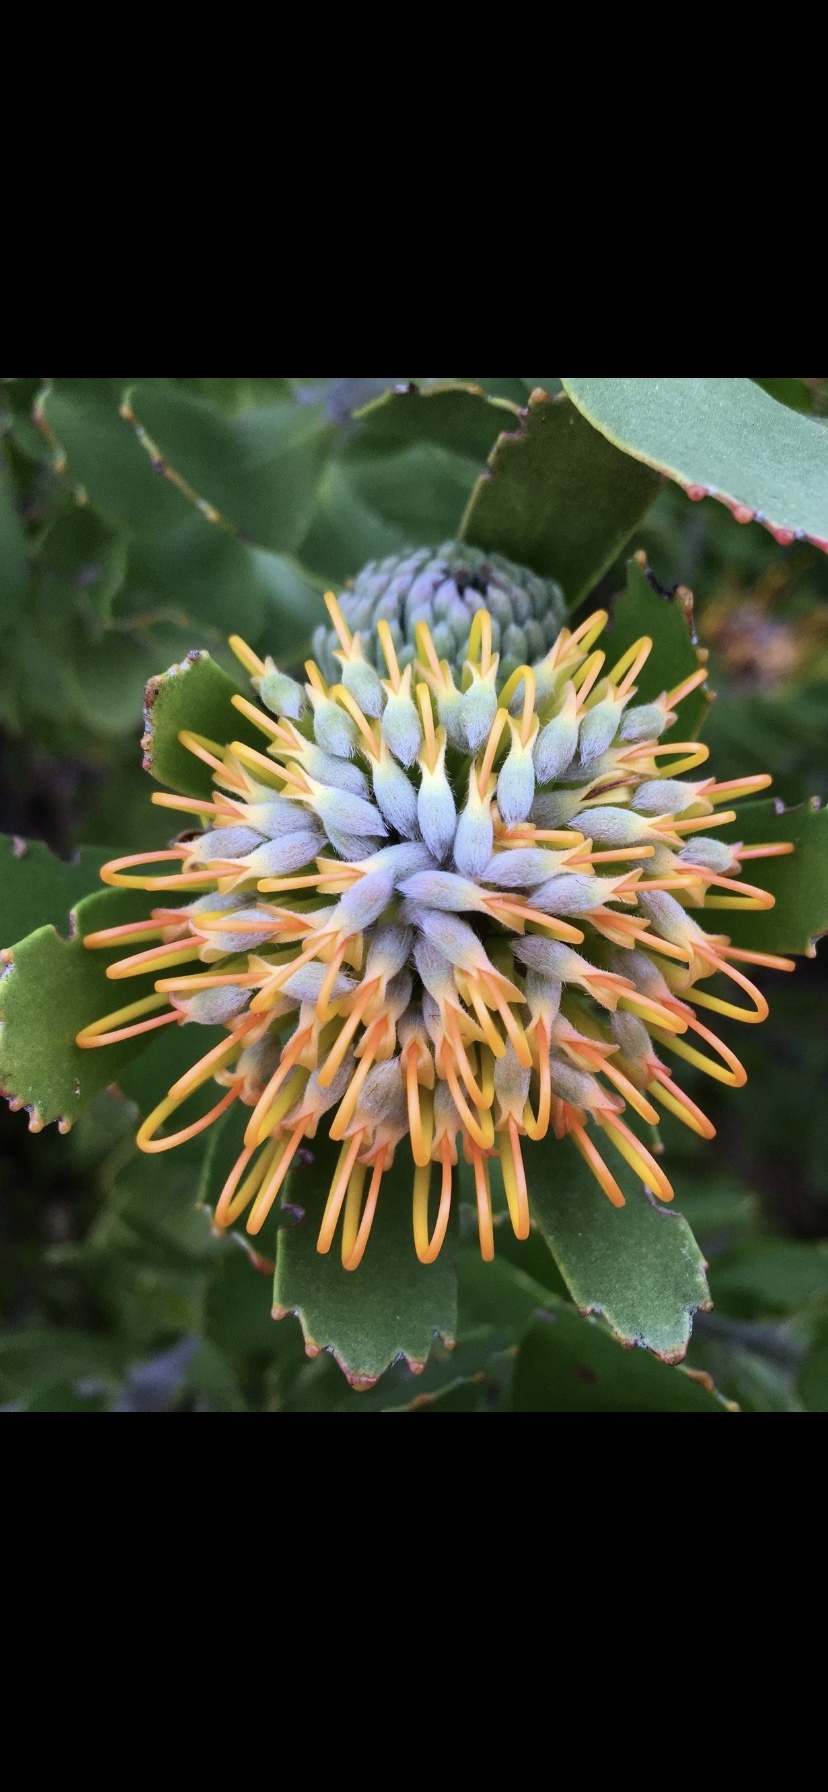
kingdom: Plantae
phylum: Tracheophyta
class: Magnoliopsida
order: Proteales
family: Proteaceae
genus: Leucospermum
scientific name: Leucospermum praecox
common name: Mossel bay pincushion
